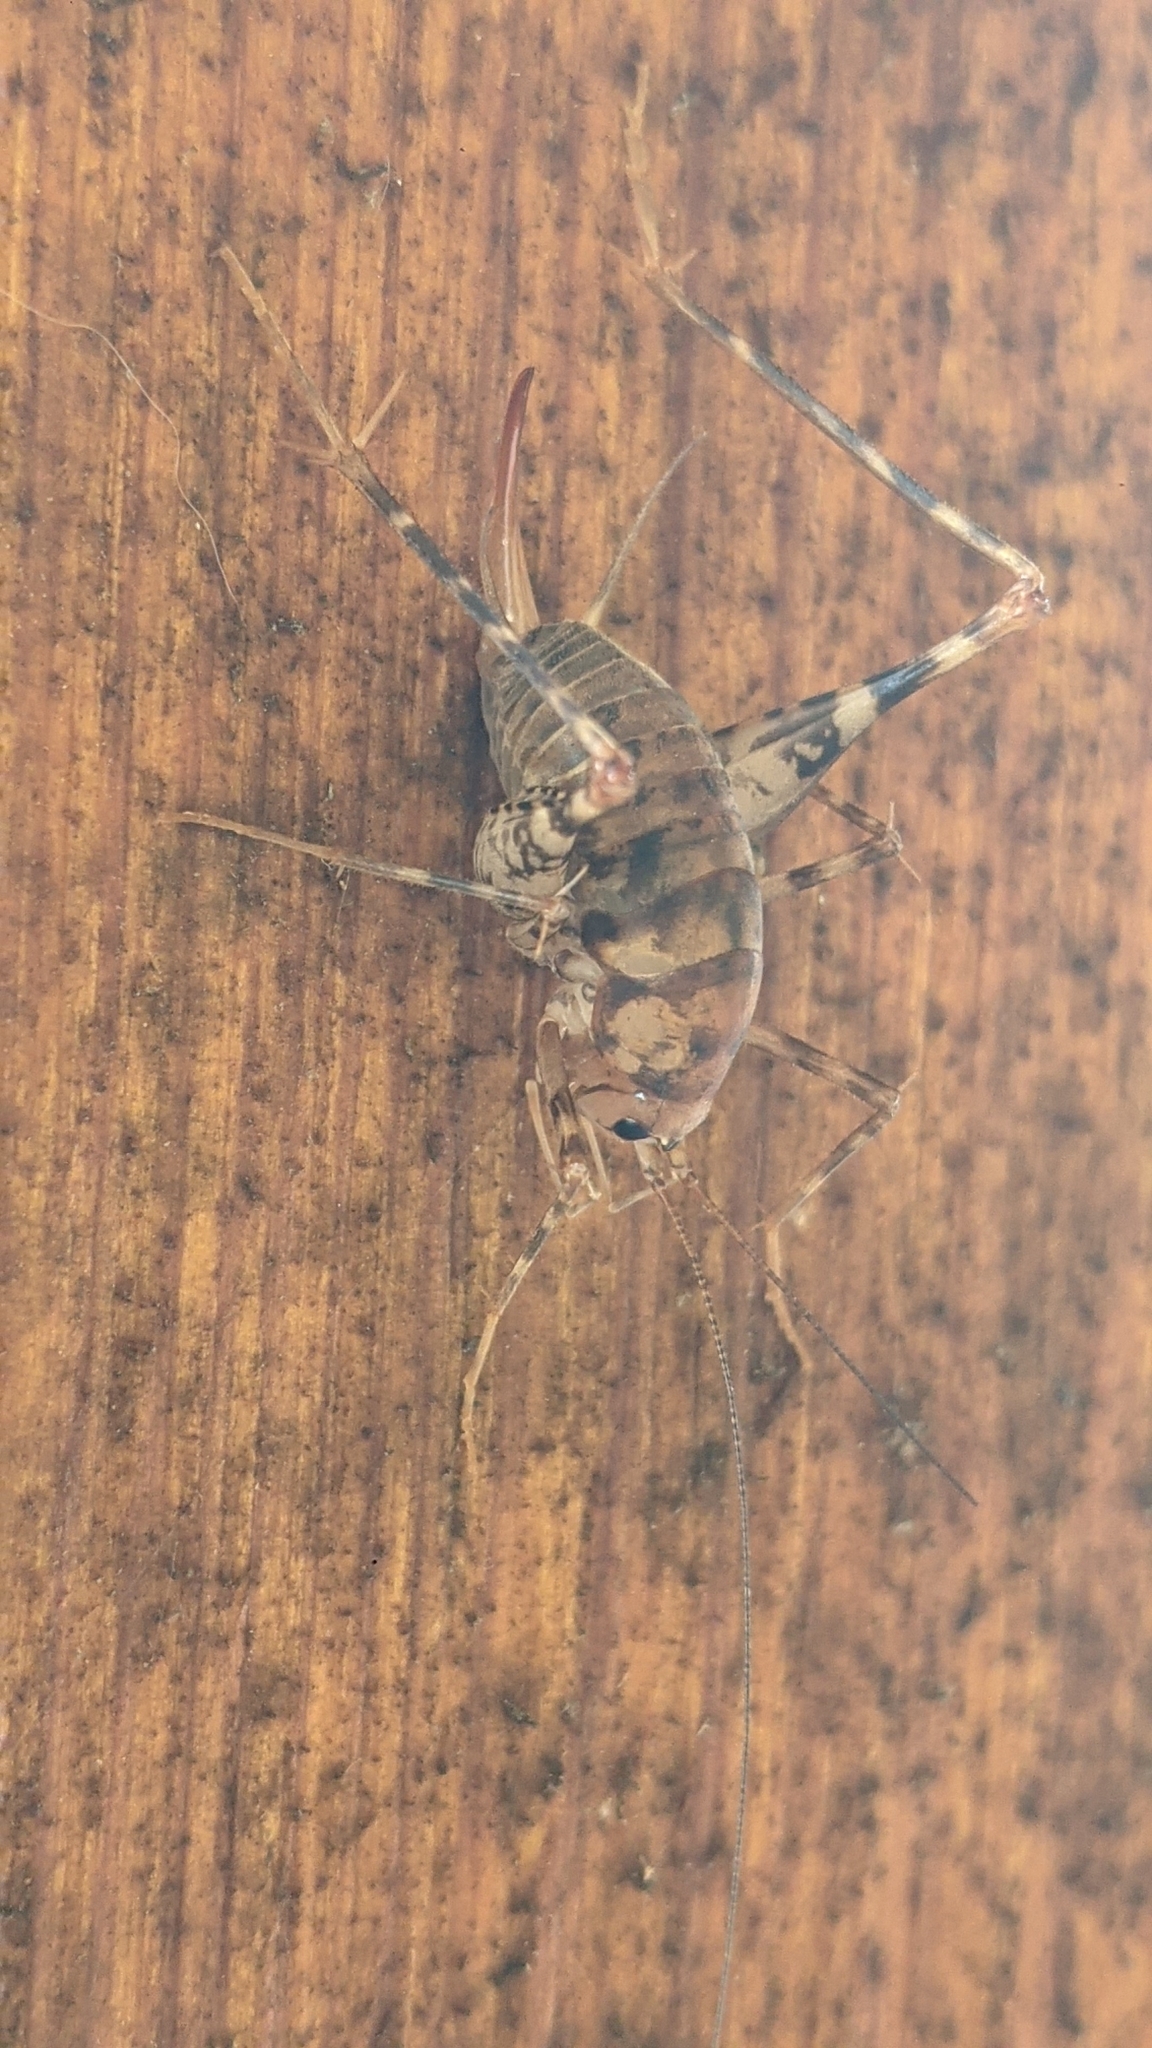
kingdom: Animalia
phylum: Arthropoda
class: Insecta
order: Orthoptera
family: Rhaphidophoridae
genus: Tachycines
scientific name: Tachycines asynamorus
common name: Greenhouse camel cricket
